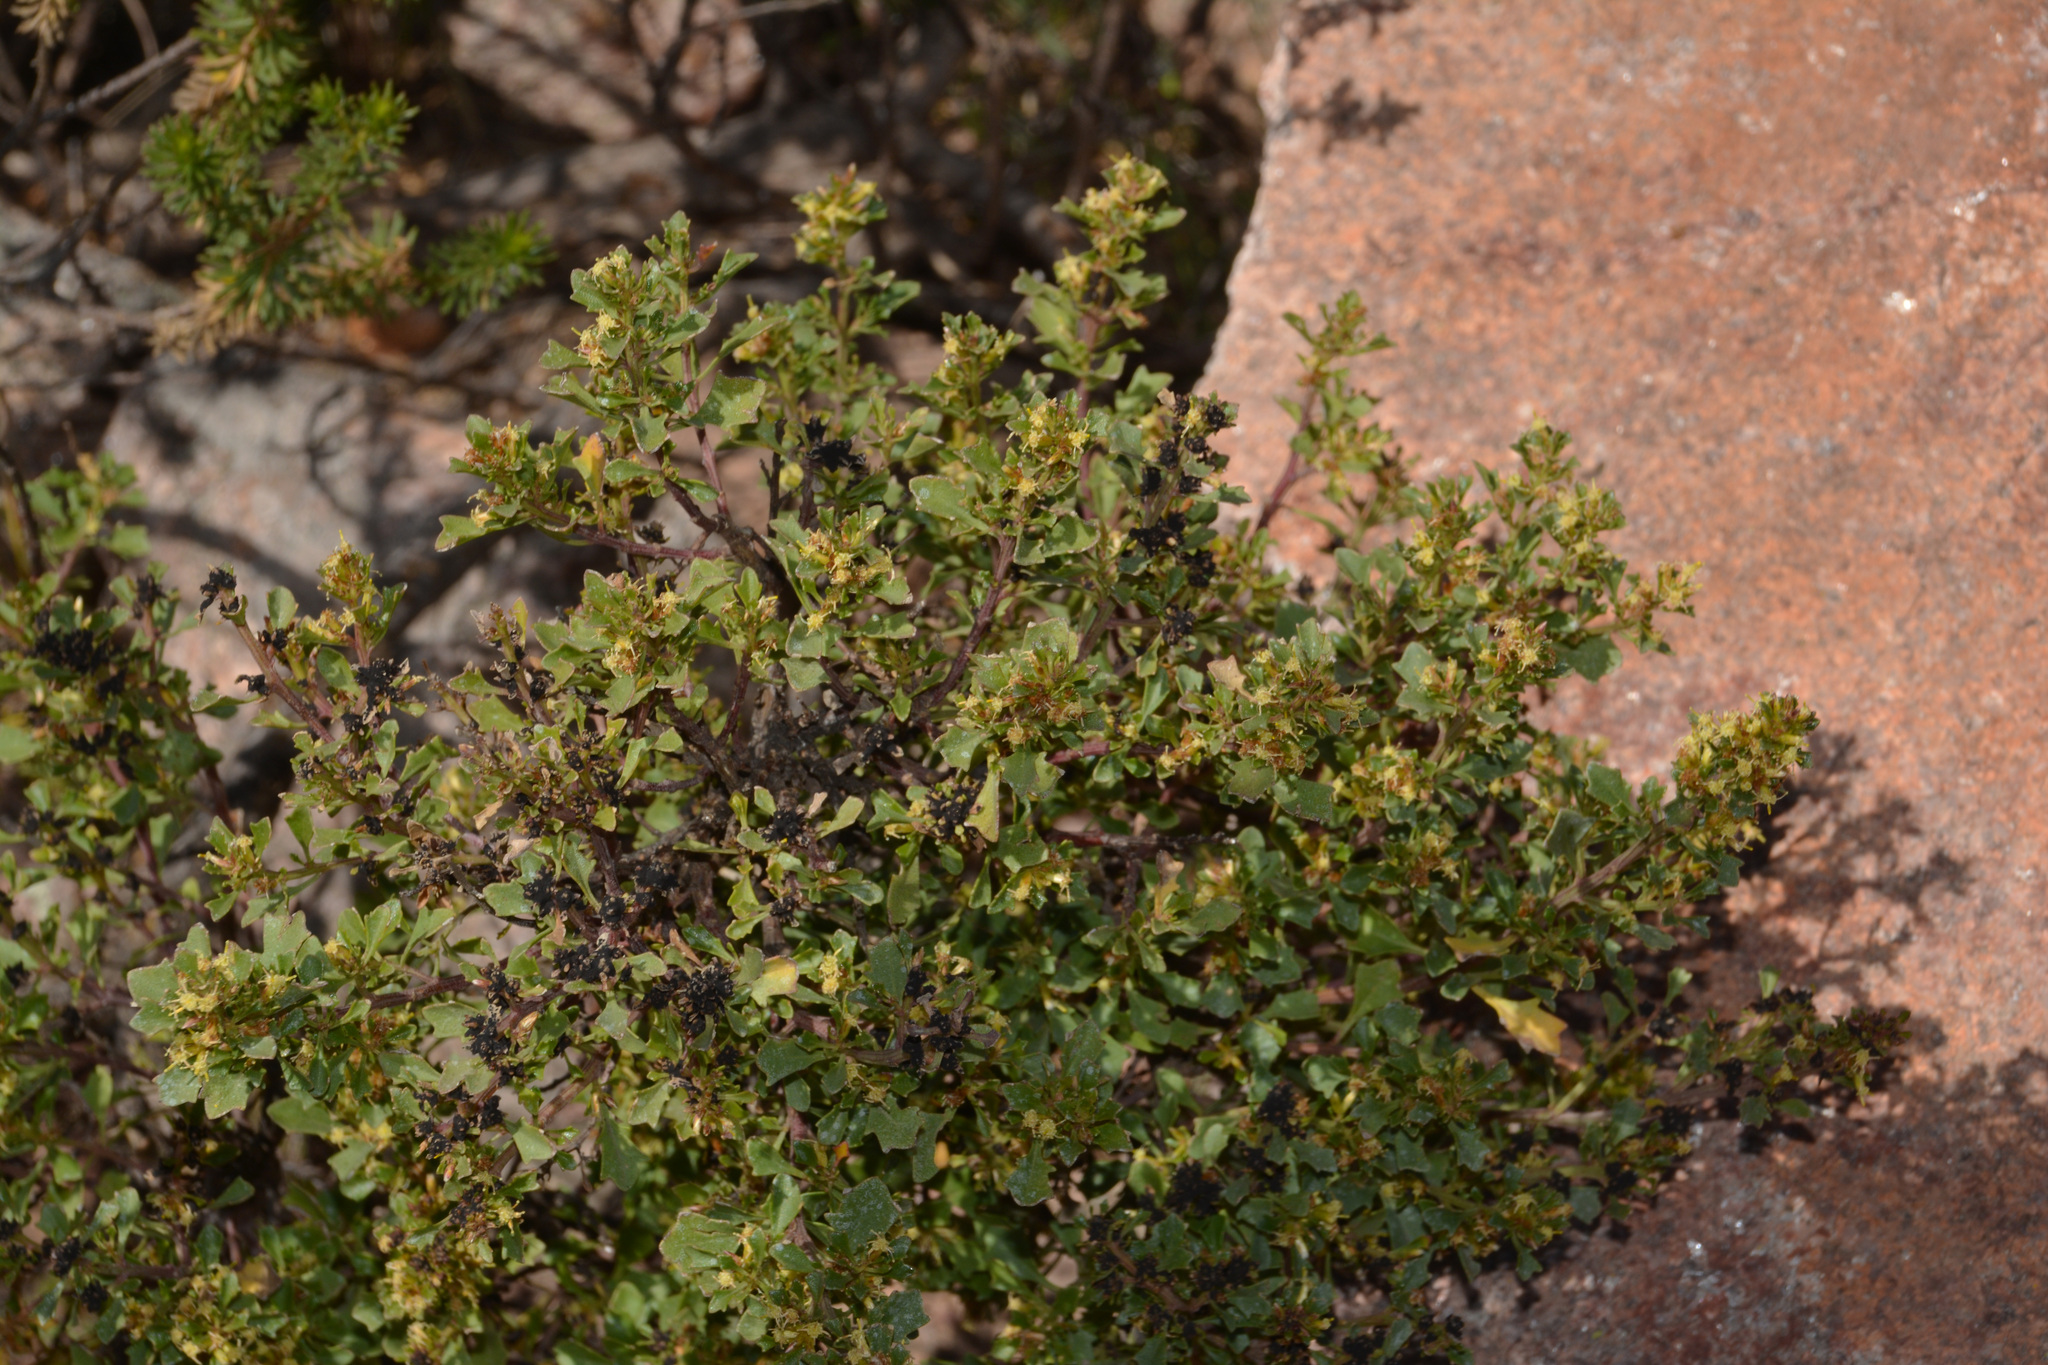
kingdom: Plantae
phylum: Tracheophyta
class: Magnoliopsida
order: Asterales
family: Asteraceae
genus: Baccharis
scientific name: Baccharis flabellata
